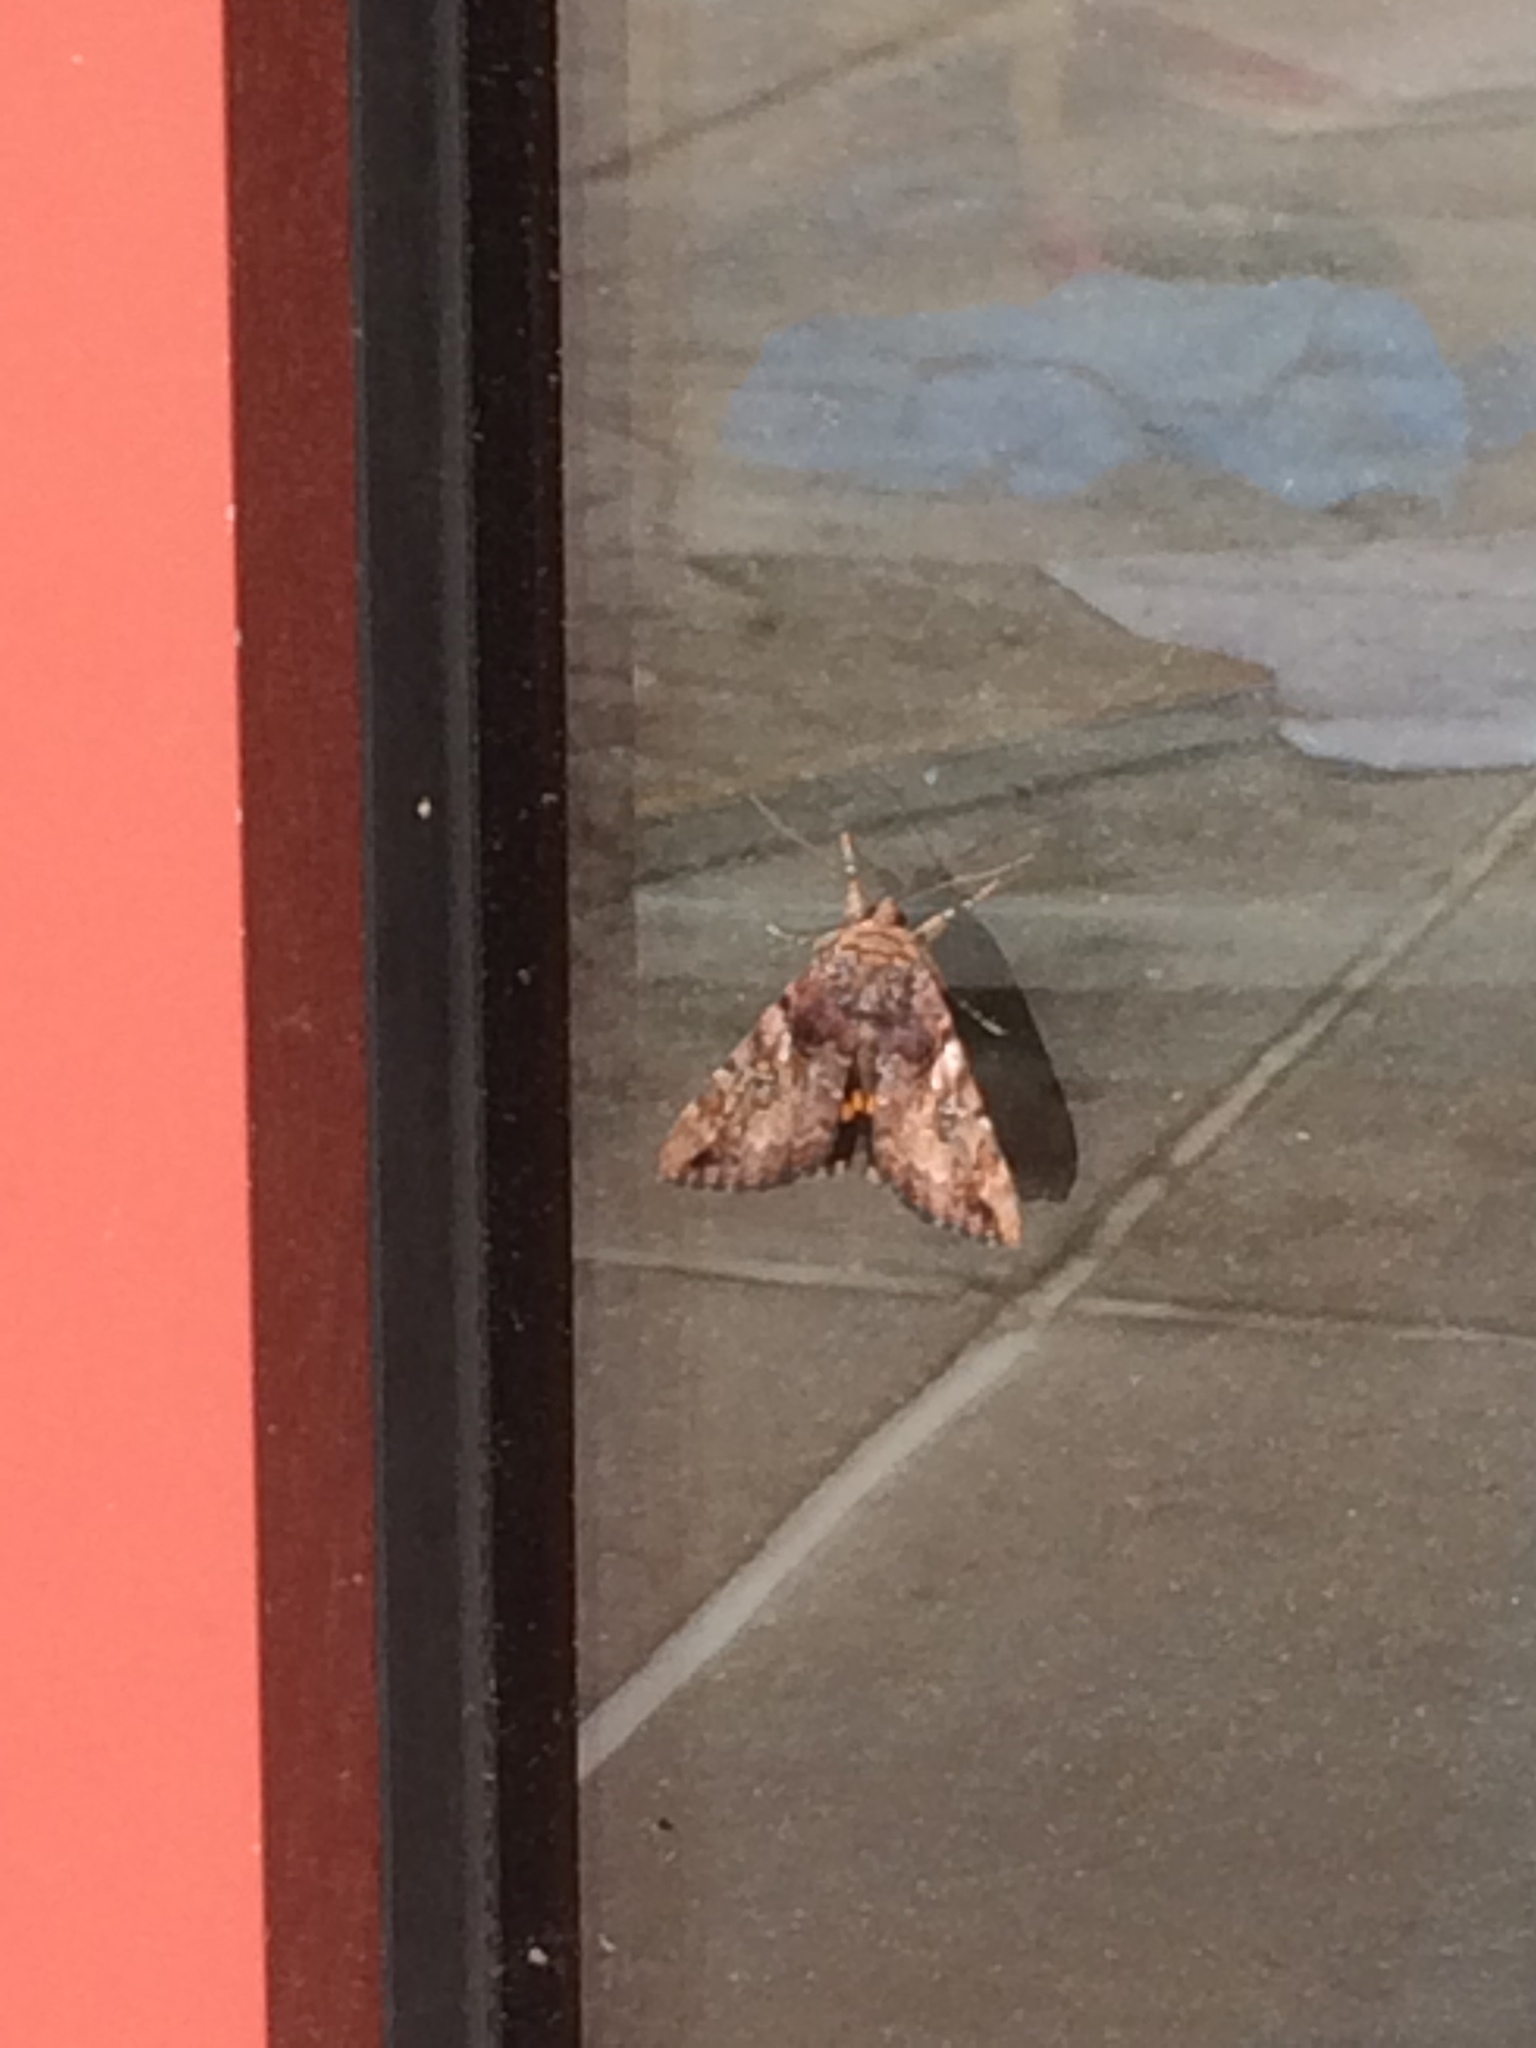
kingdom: Animalia
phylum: Arthropoda
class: Insecta
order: Lepidoptera
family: Erebidae
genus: Catocala
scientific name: Catocala muliercula
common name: The little wife underwing
